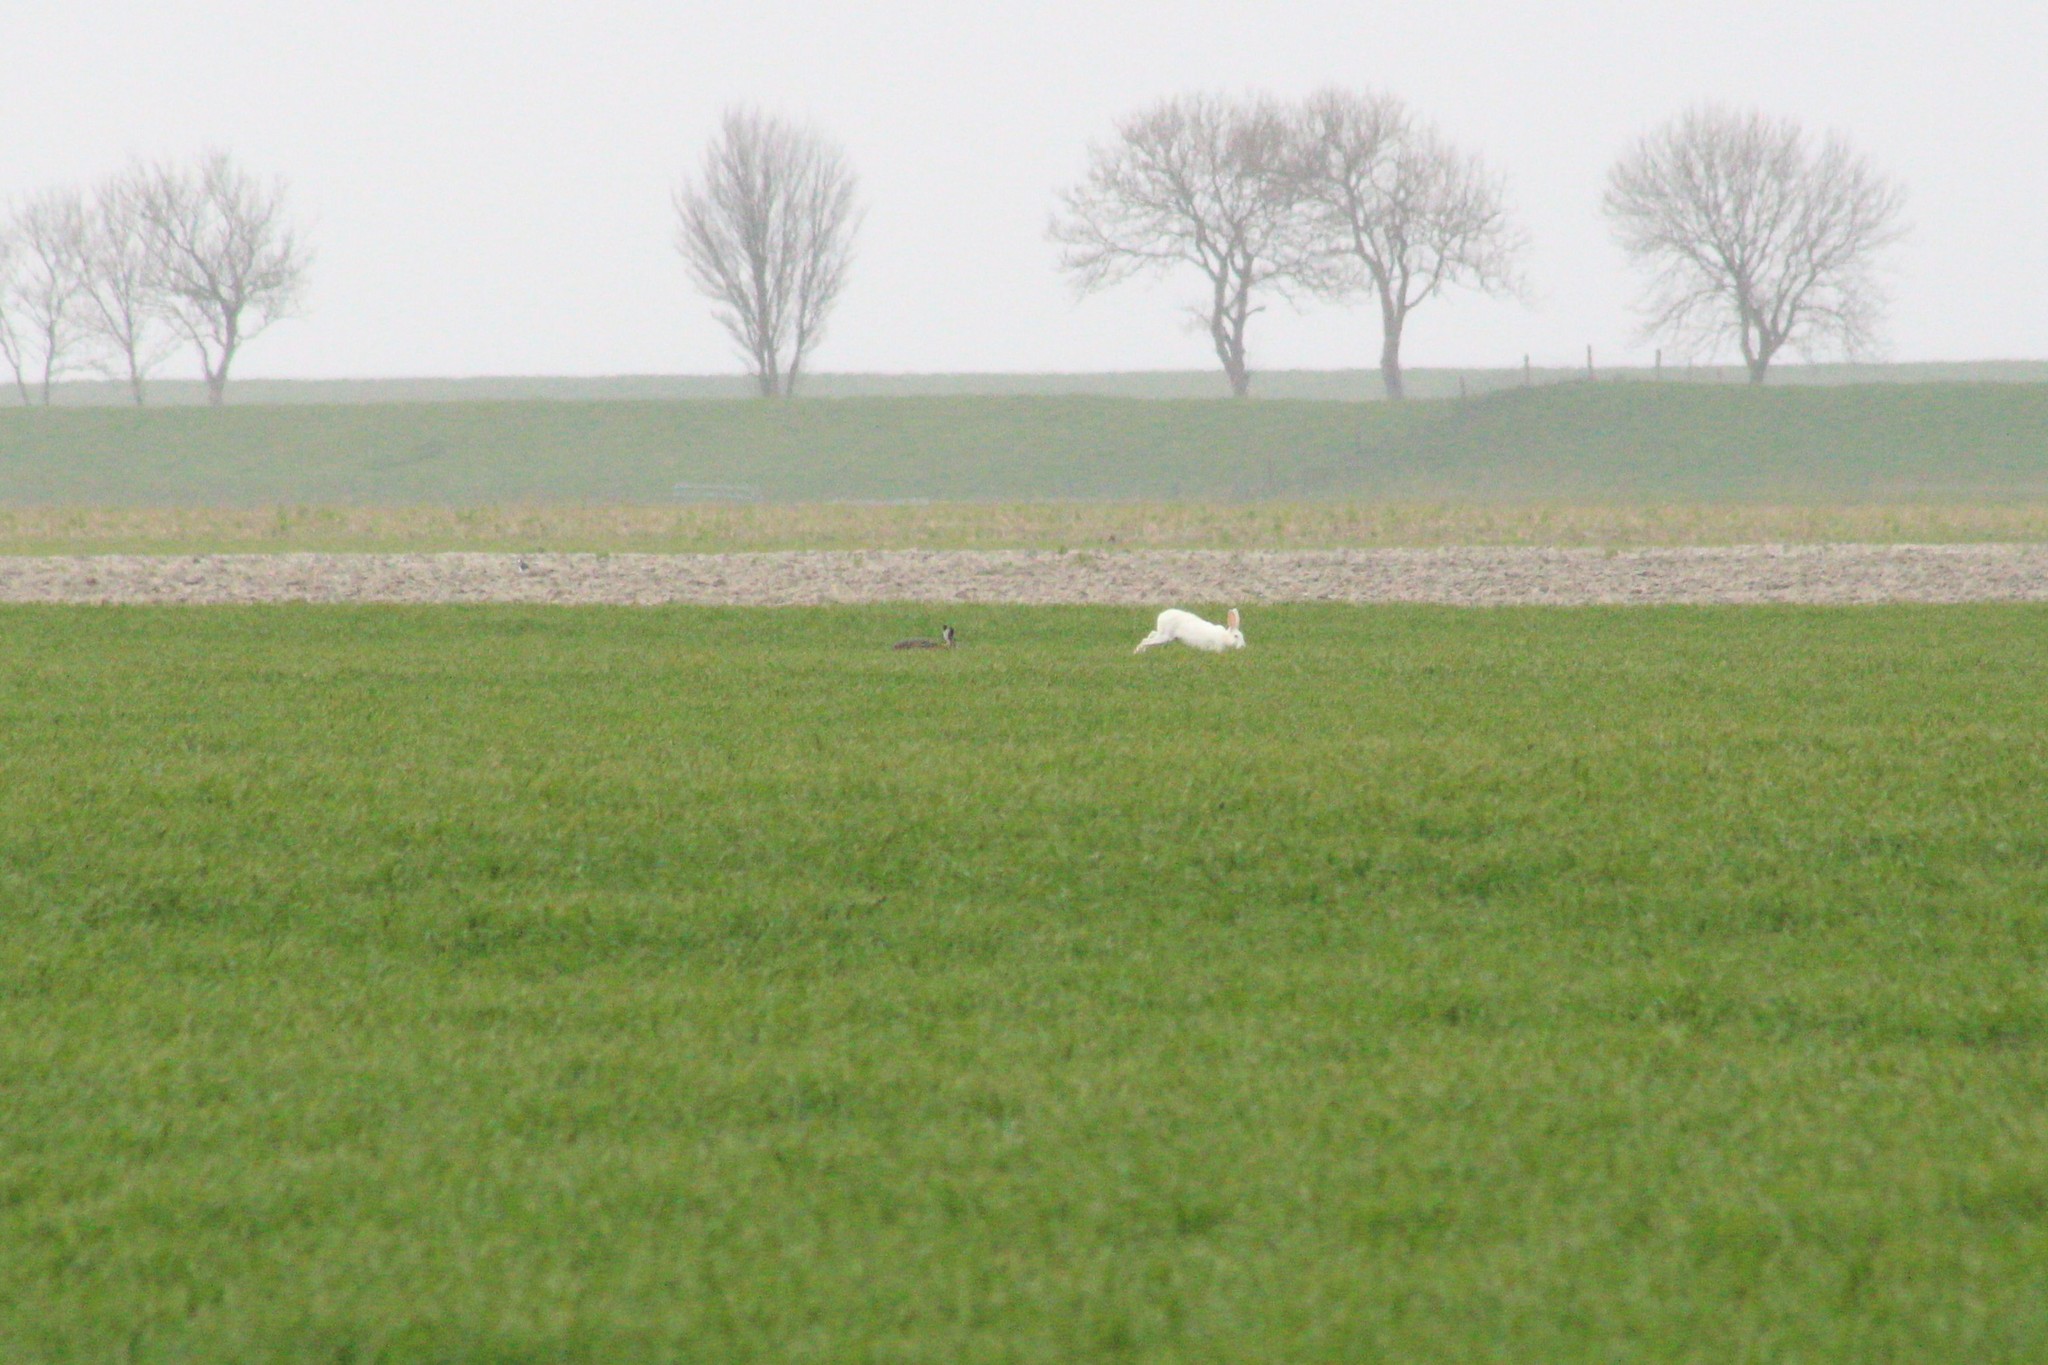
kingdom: Animalia
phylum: Chordata
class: Mammalia
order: Lagomorpha
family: Leporidae
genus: Lepus
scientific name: Lepus europaeus
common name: European hare
